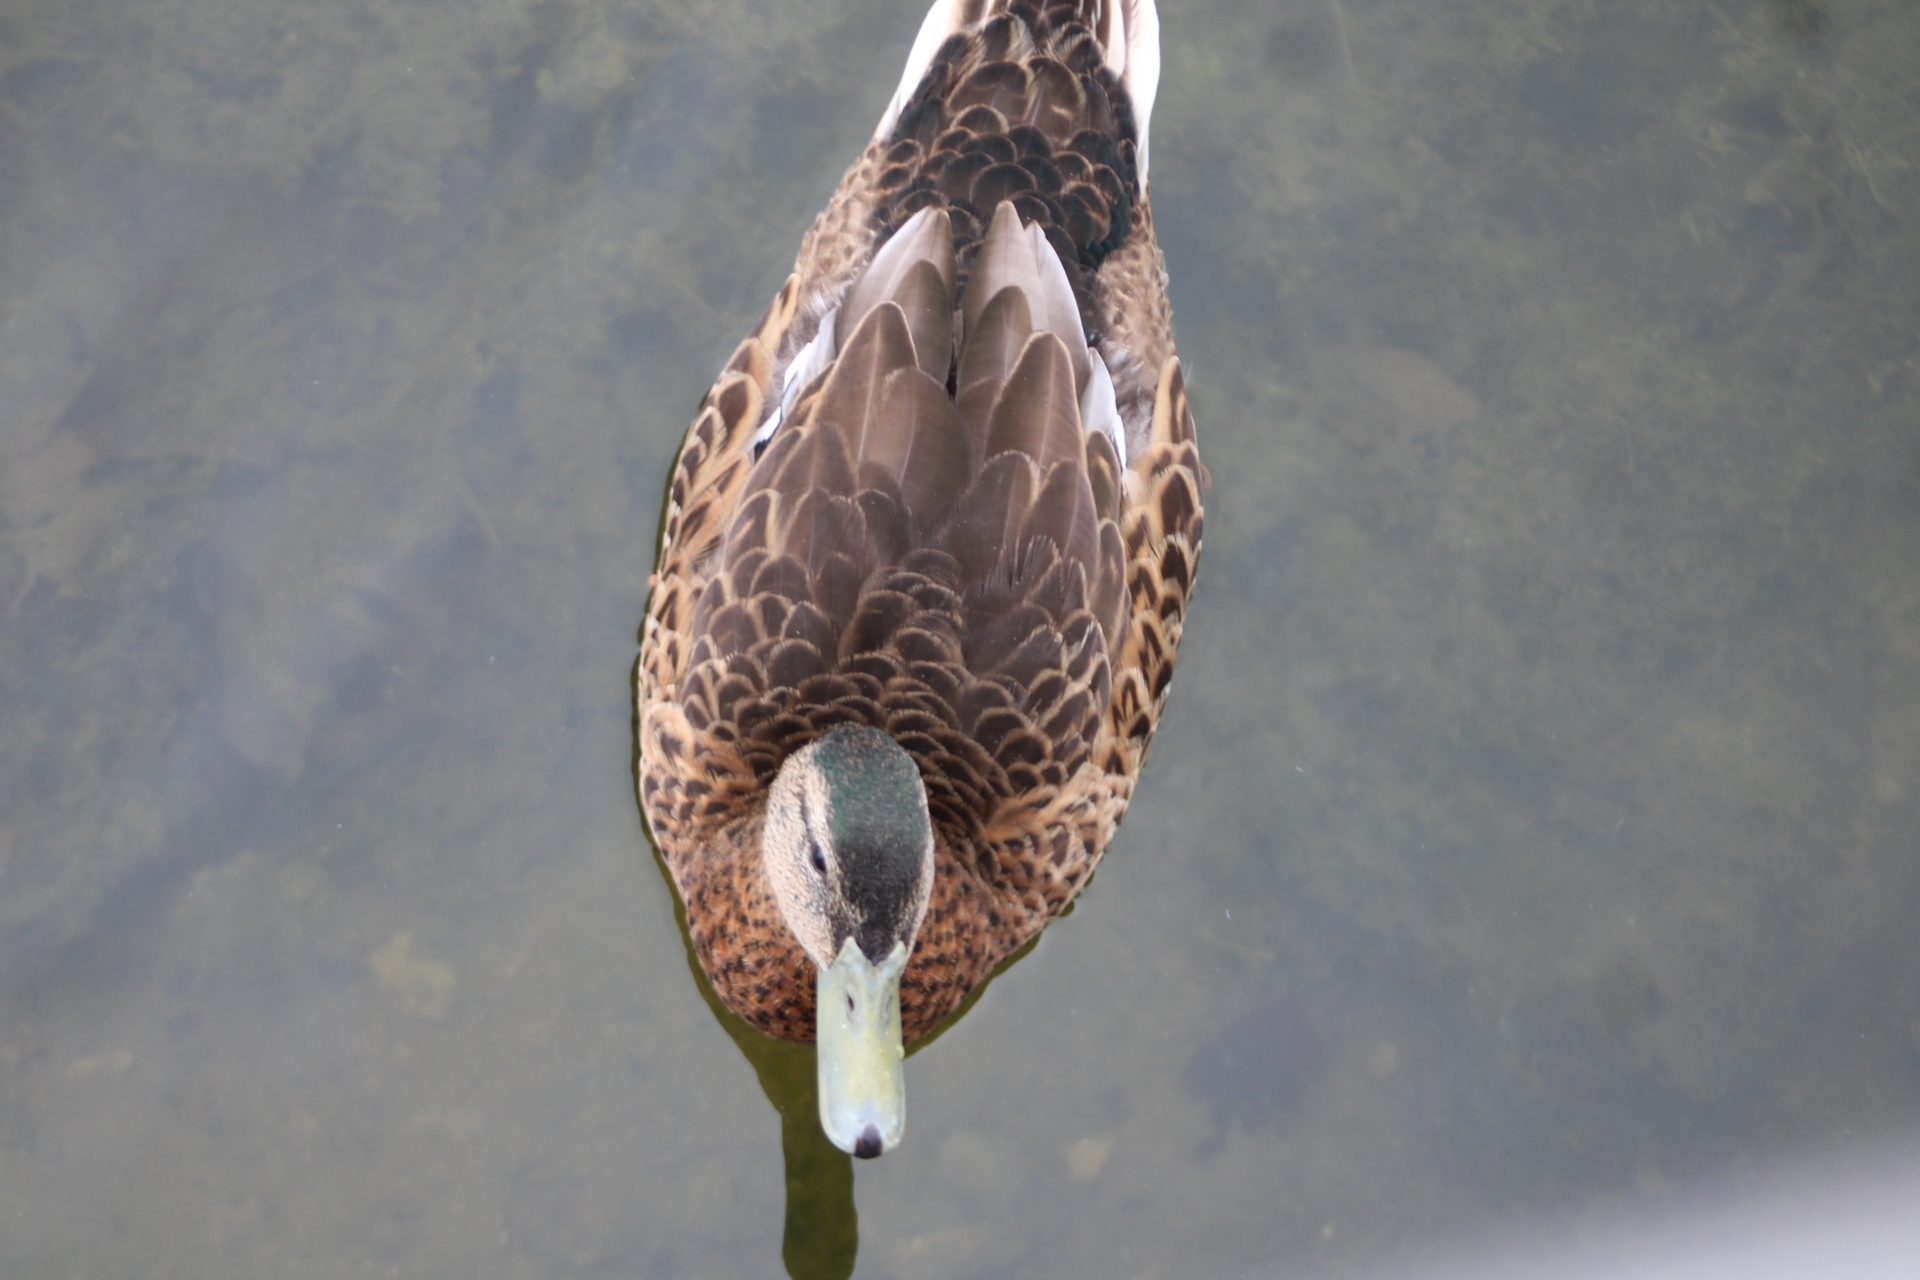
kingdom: Animalia
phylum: Chordata
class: Aves
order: Anseriformes
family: Anatidae
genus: Anas
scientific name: Anas platyrhynchos
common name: Mallard
